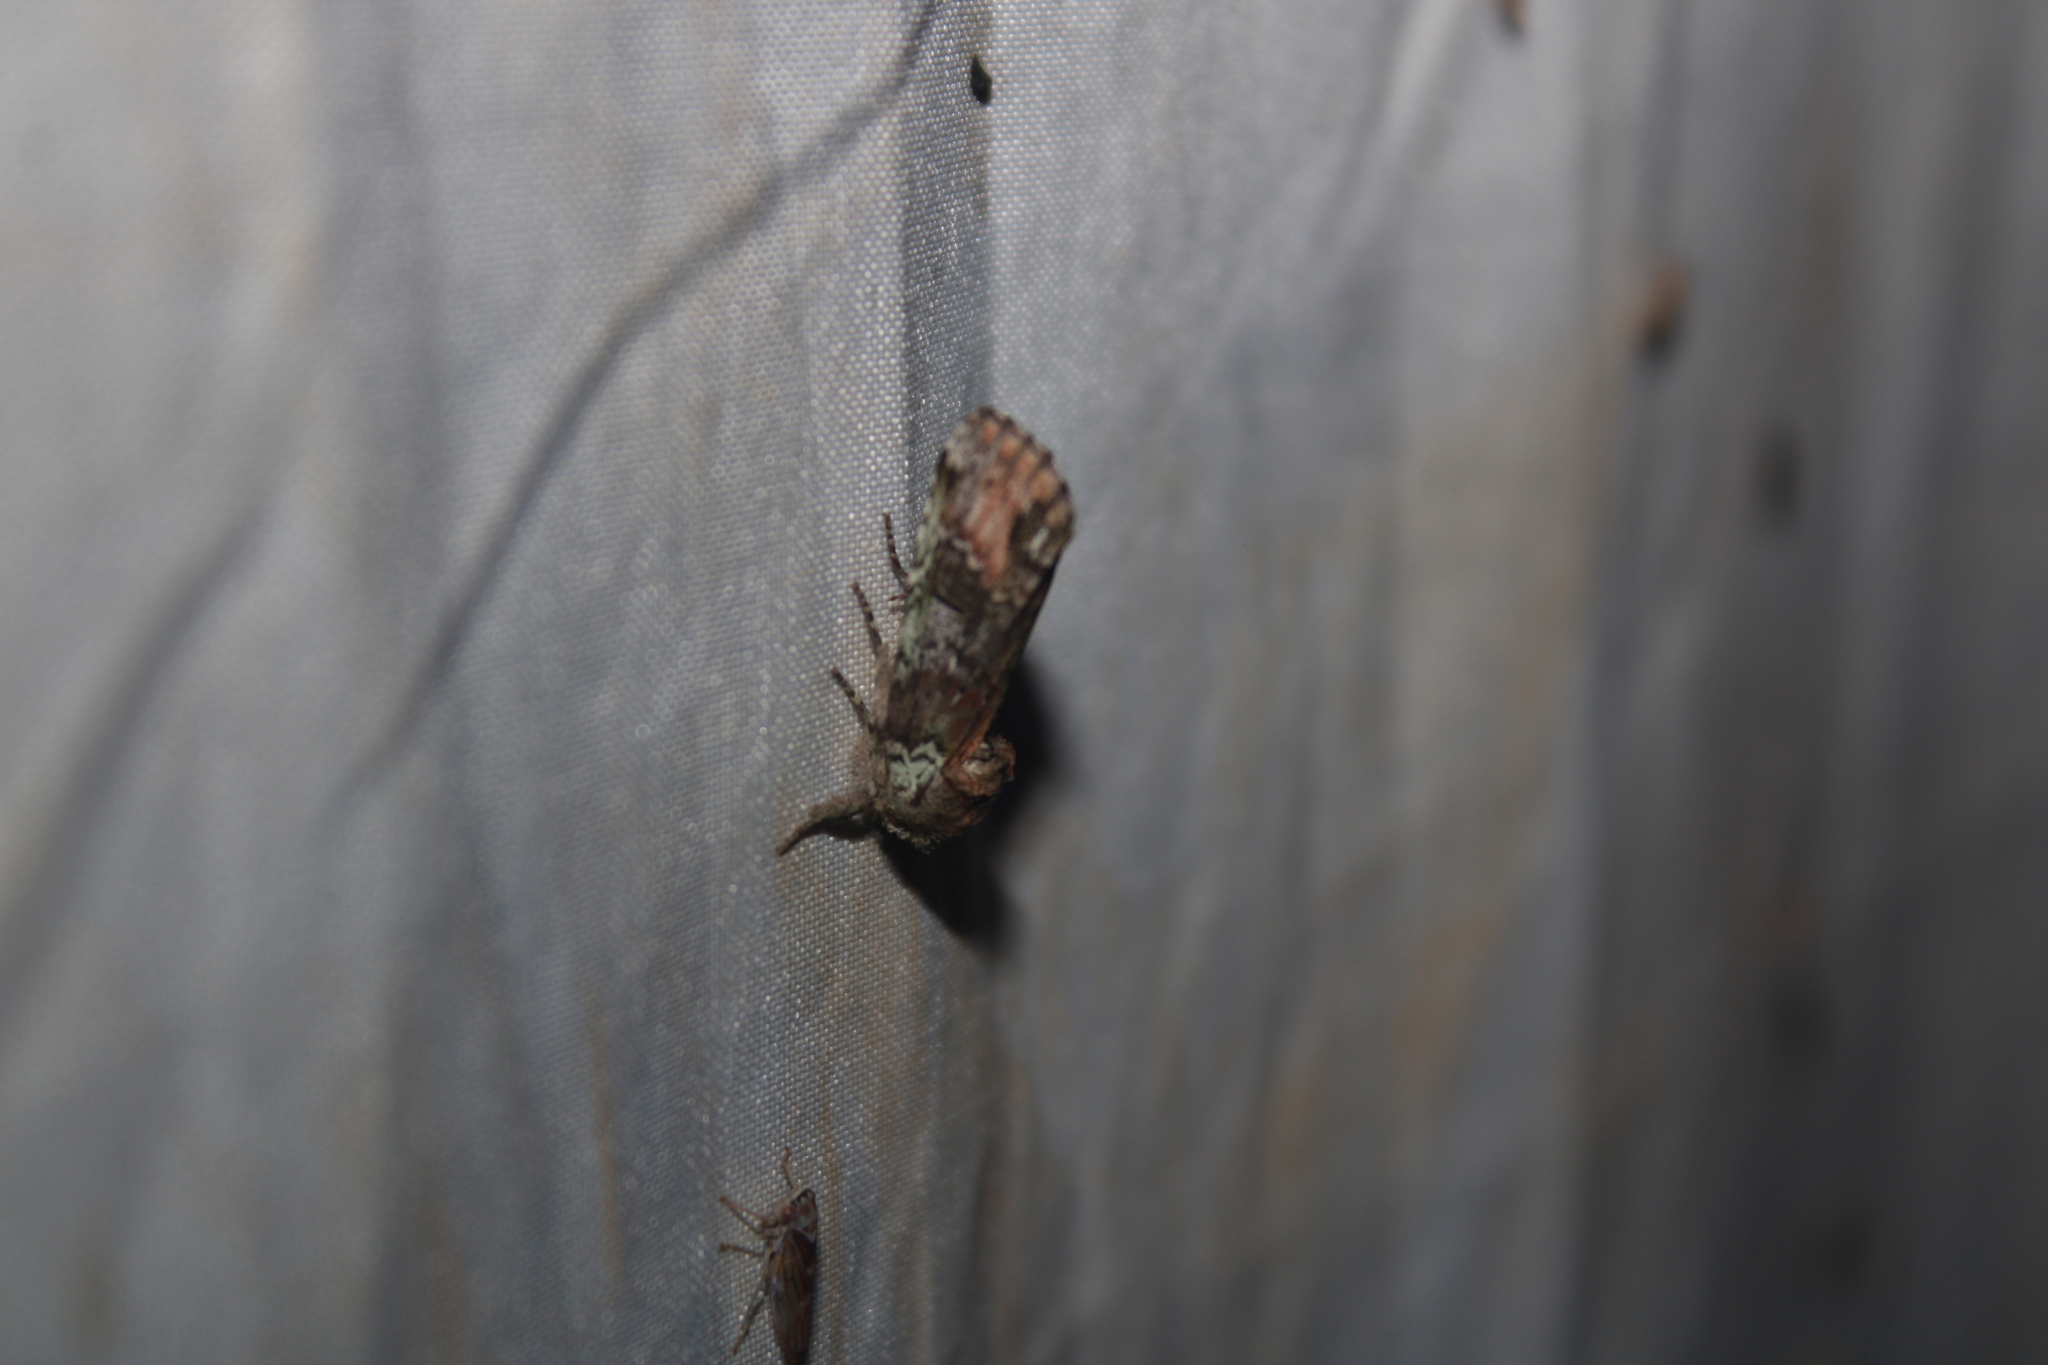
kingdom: Animalia
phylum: Arthropoda
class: Insecta
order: Lepidoptera
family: Notodontidae
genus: Schizura
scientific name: Schizura
